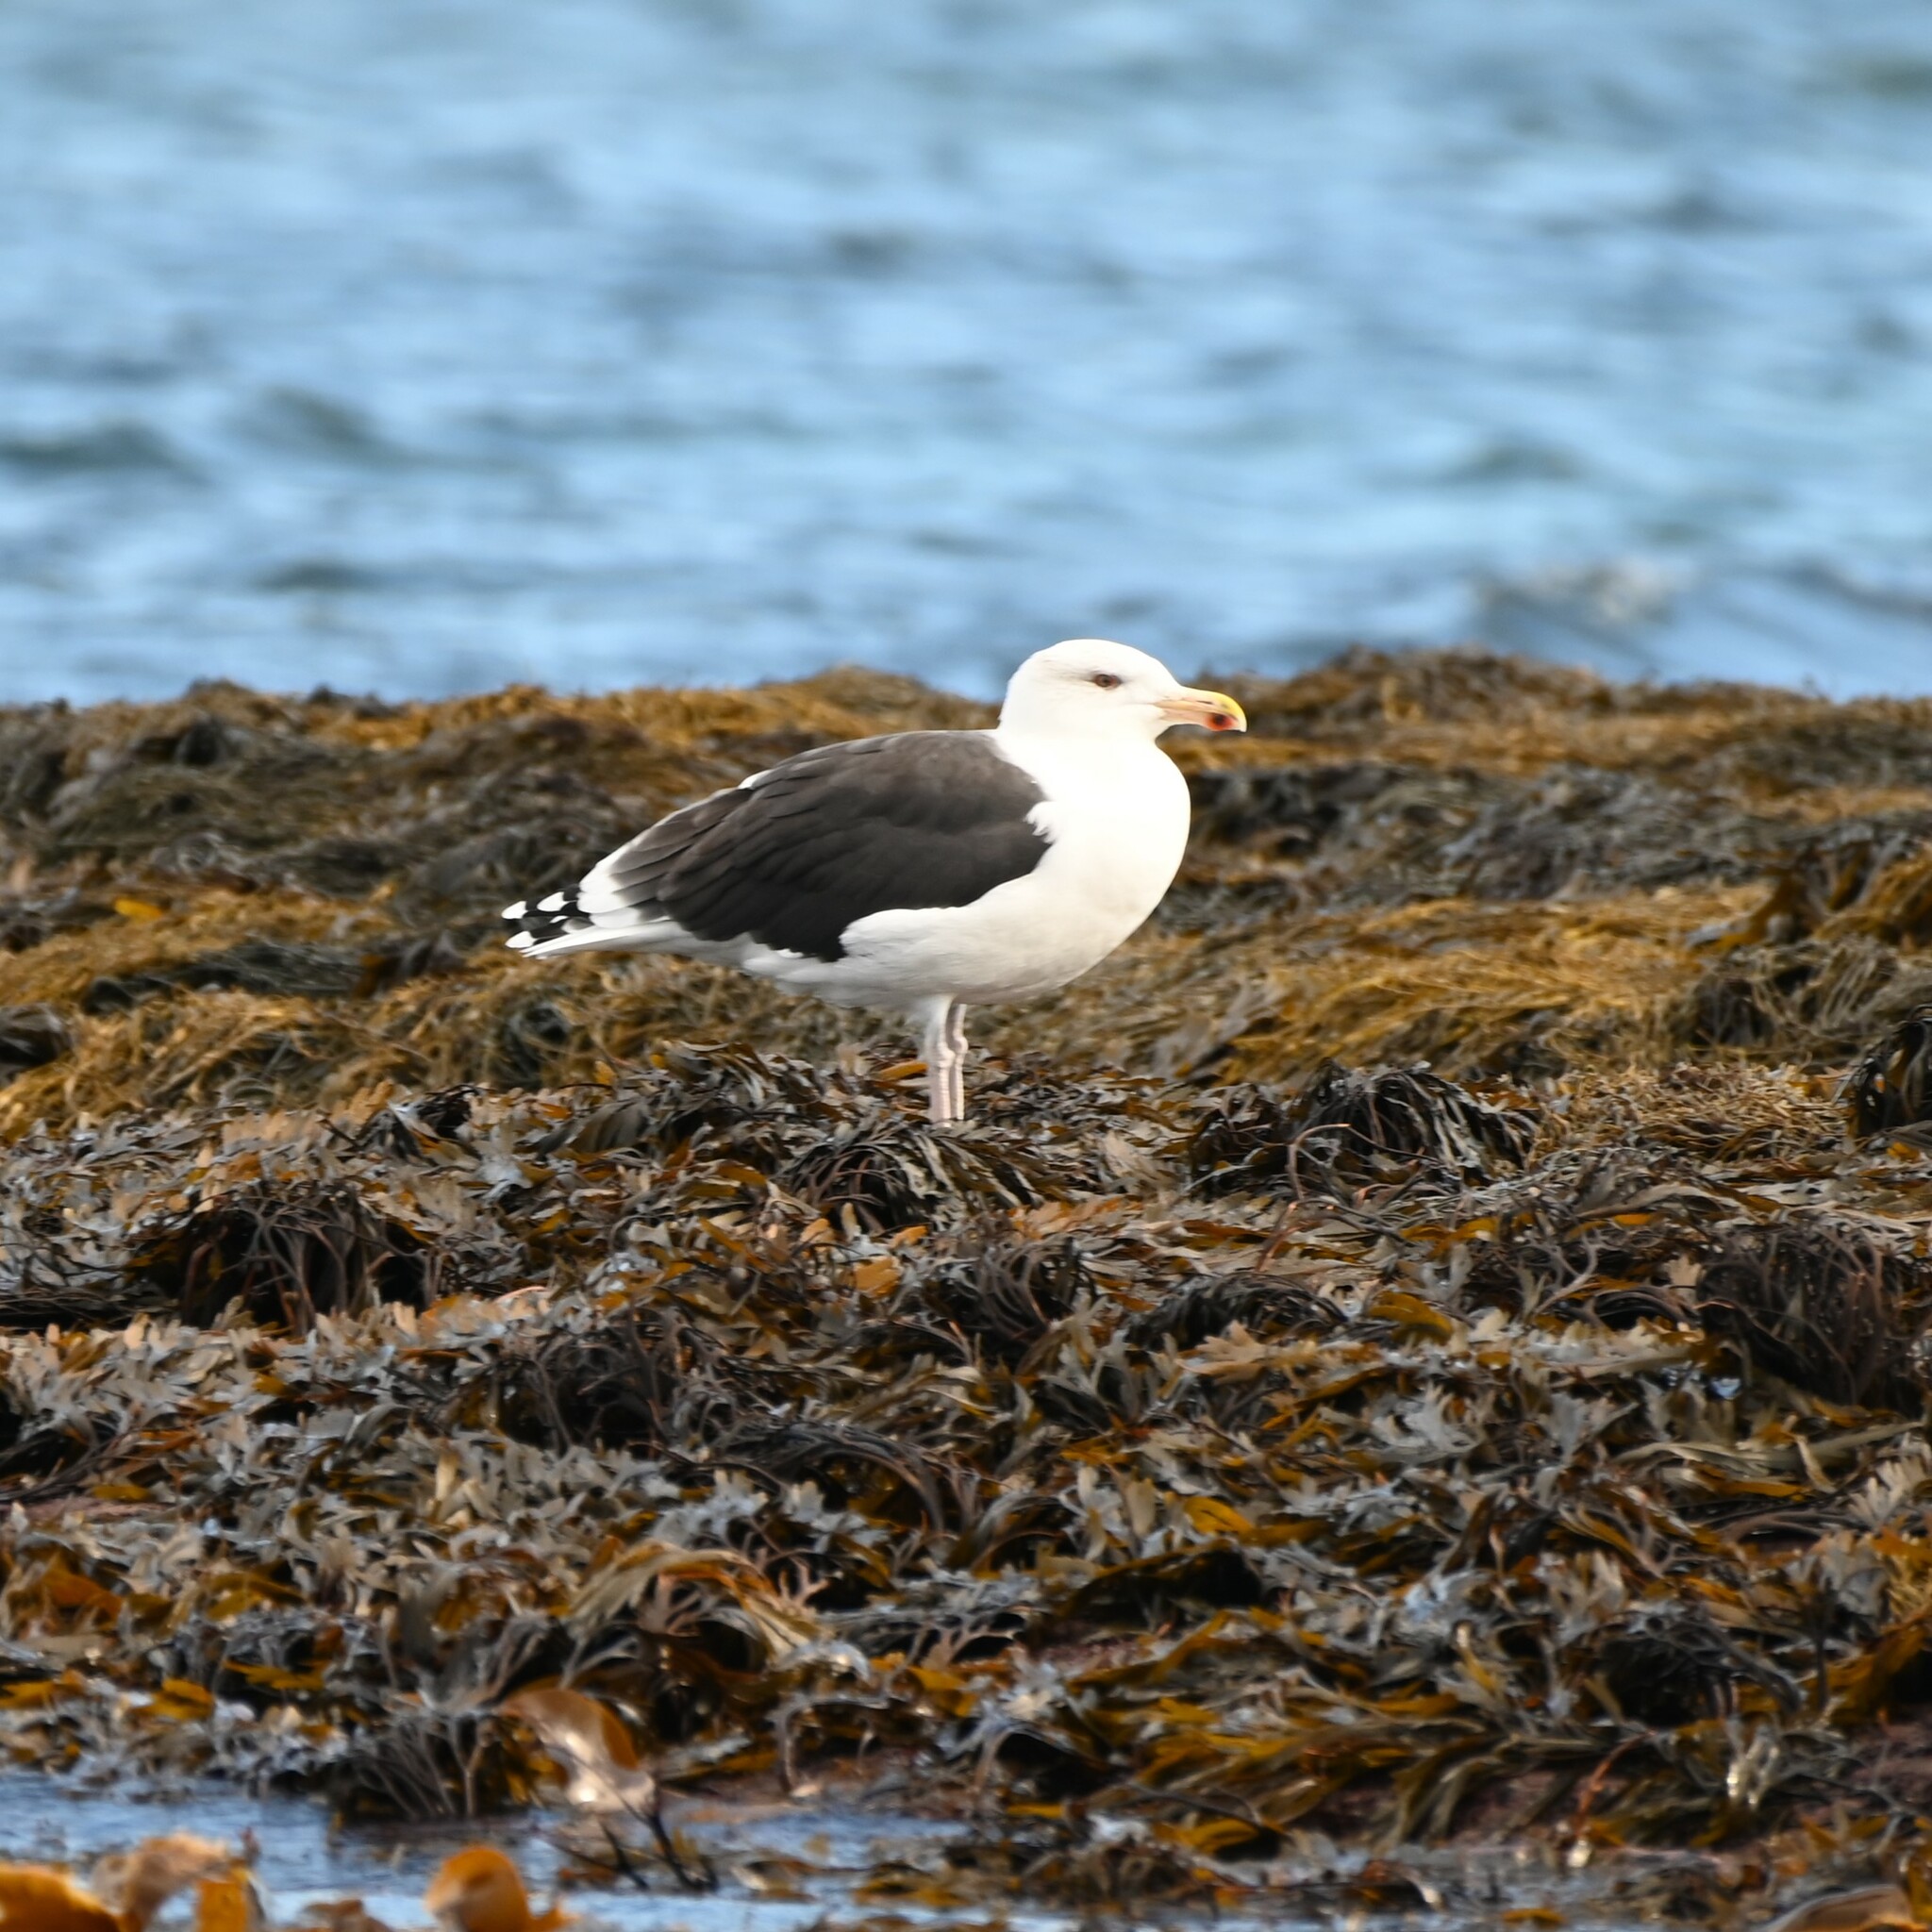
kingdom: Animalia
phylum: Chordata
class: Aves
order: Charadriiformes
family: Laridae
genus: Larus
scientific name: Larus marinus
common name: Great black-backed gull
